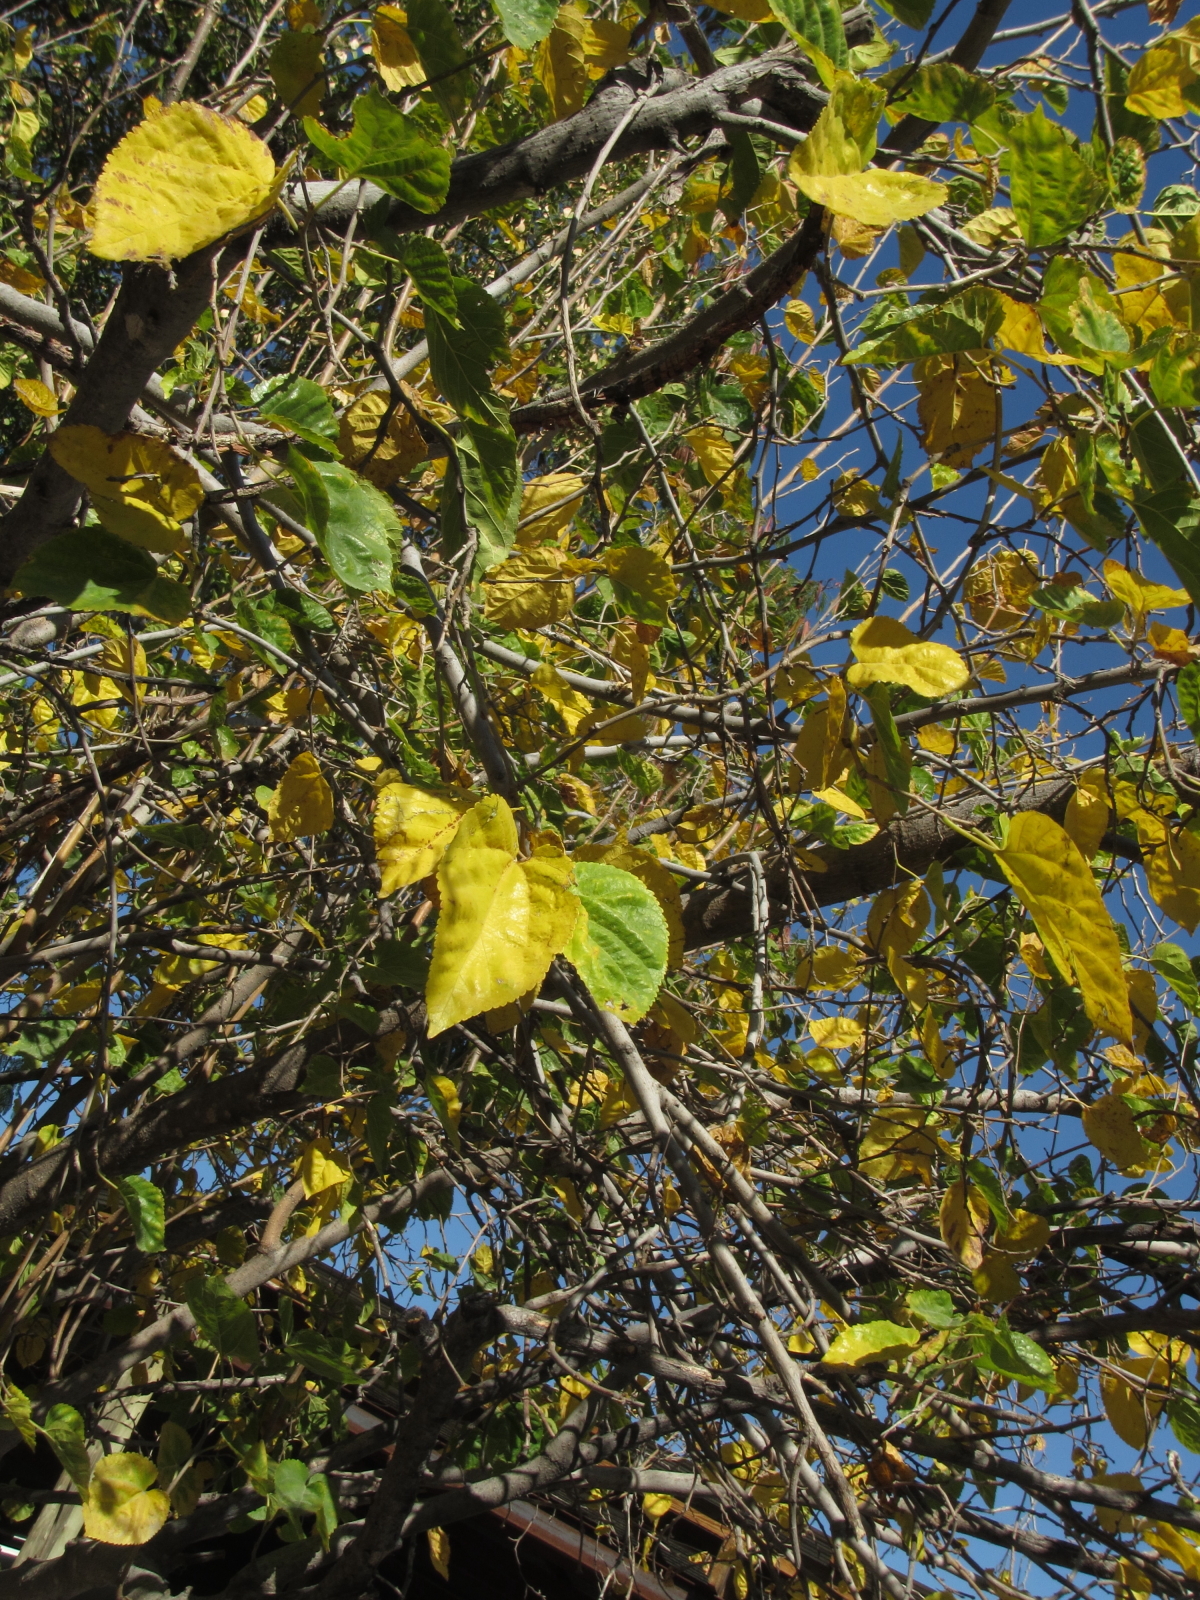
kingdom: Plantae
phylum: Tracheophyta
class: Magnoliopsida
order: Rosales
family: Moraceae
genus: Morus
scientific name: Morus alba
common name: White mulberry
